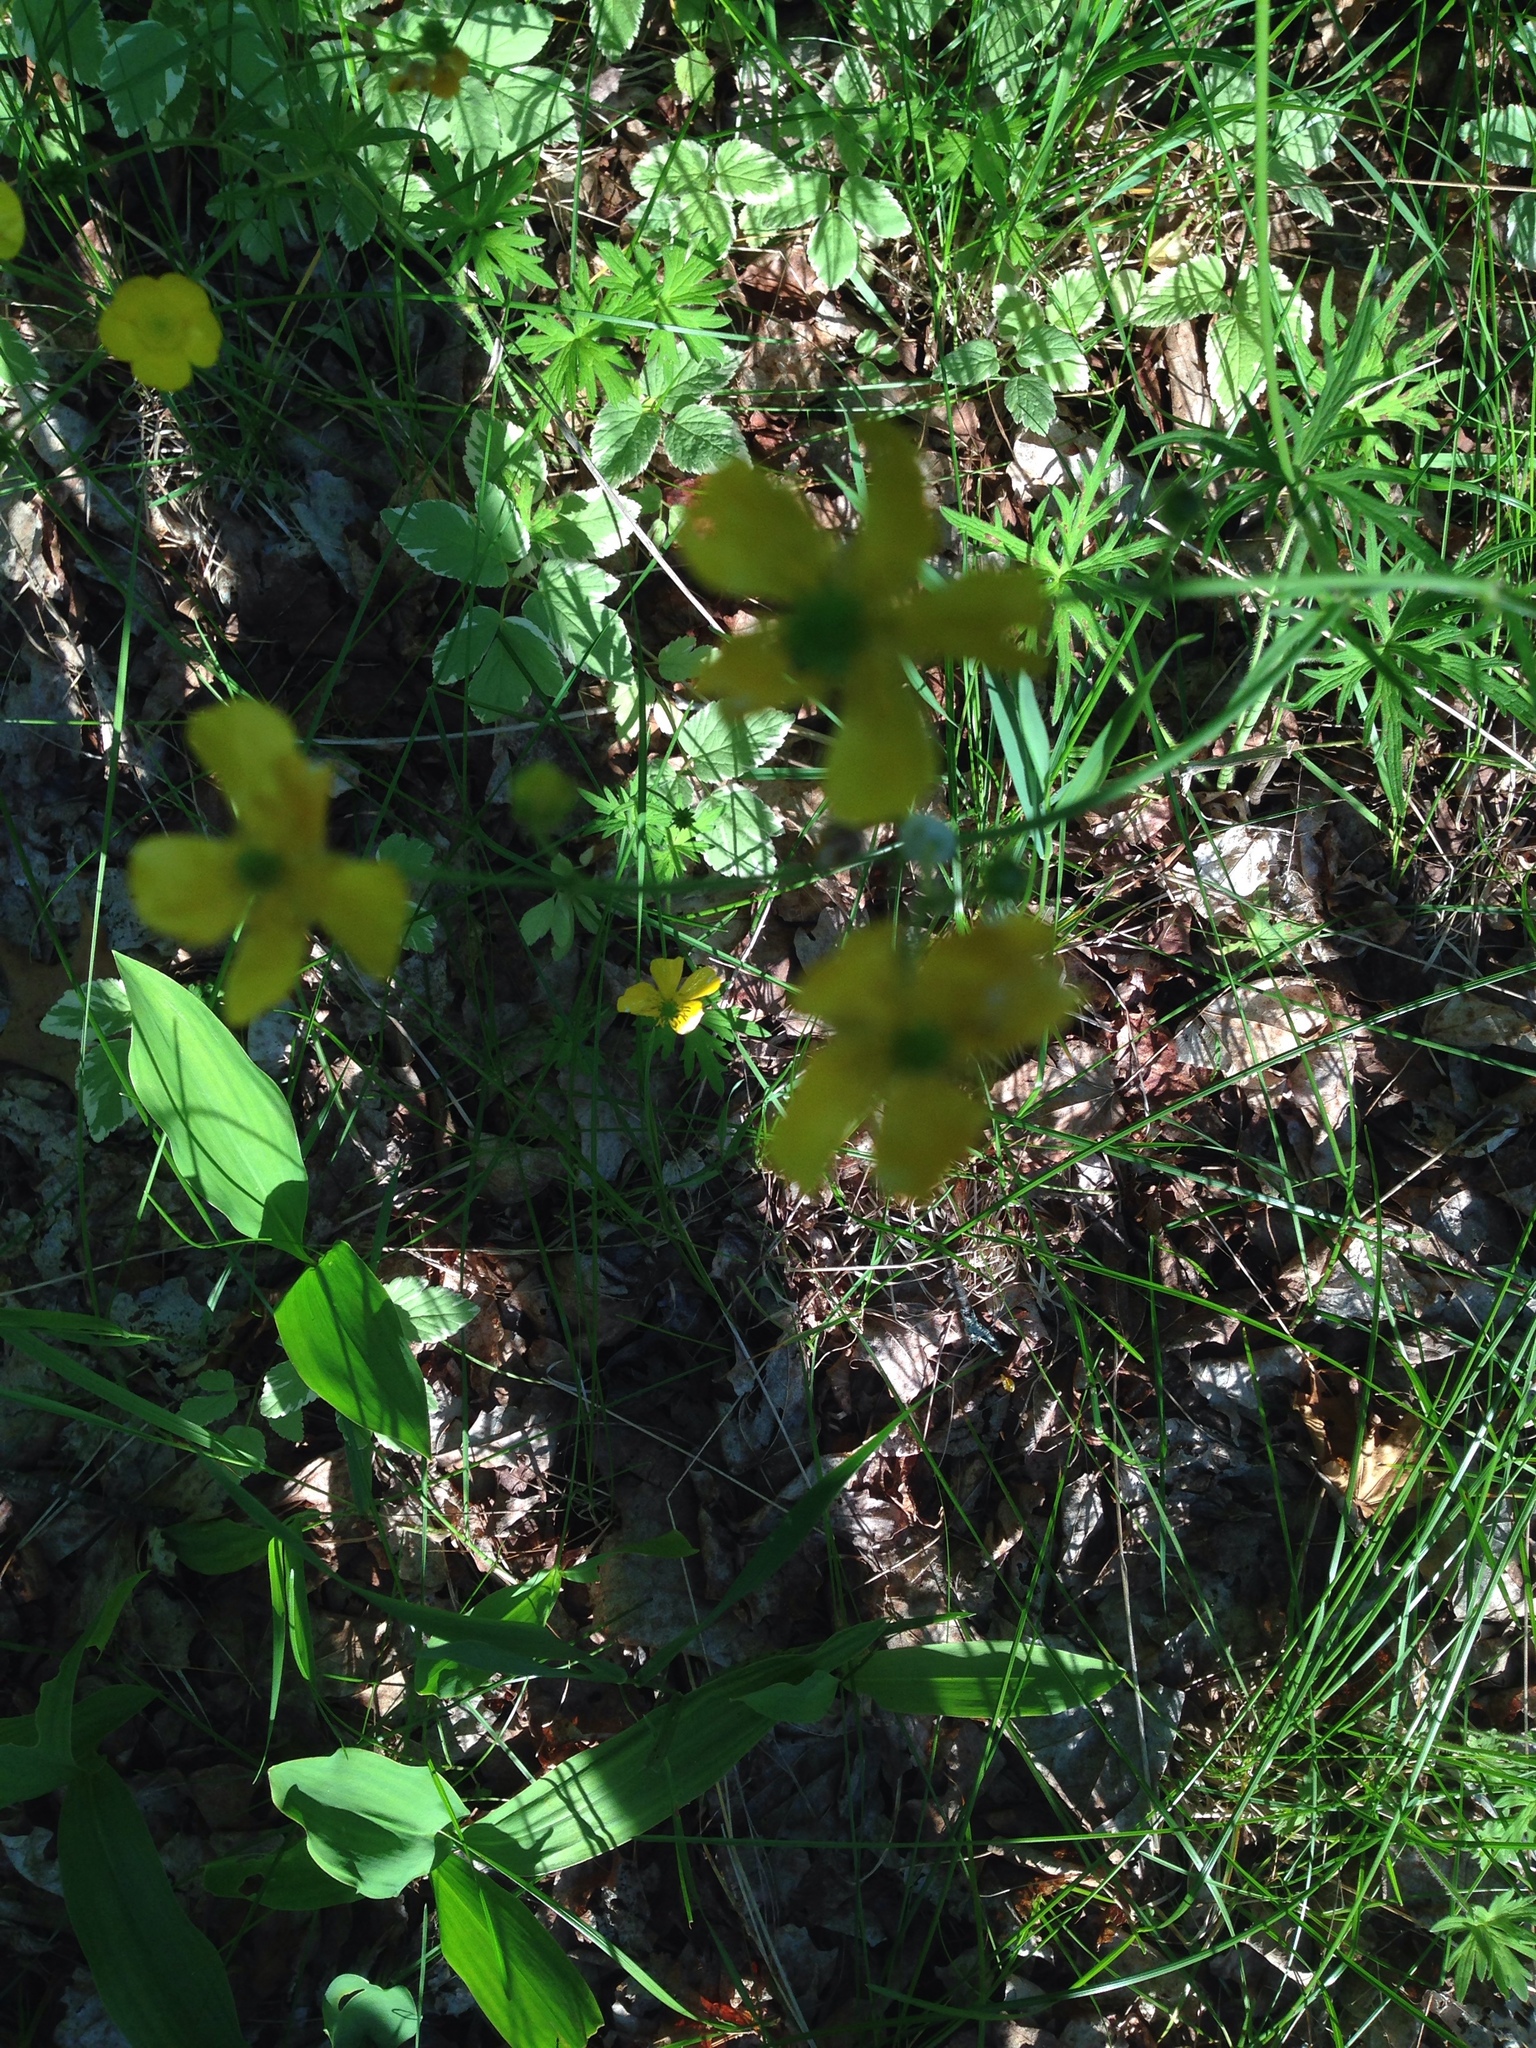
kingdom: Plantae
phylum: Tracheophyta
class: Magnoliopsida
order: Ranunculales
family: Ranunculaceae
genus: Ranunculus
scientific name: Ranunculus acris
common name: Meadow buttercup
